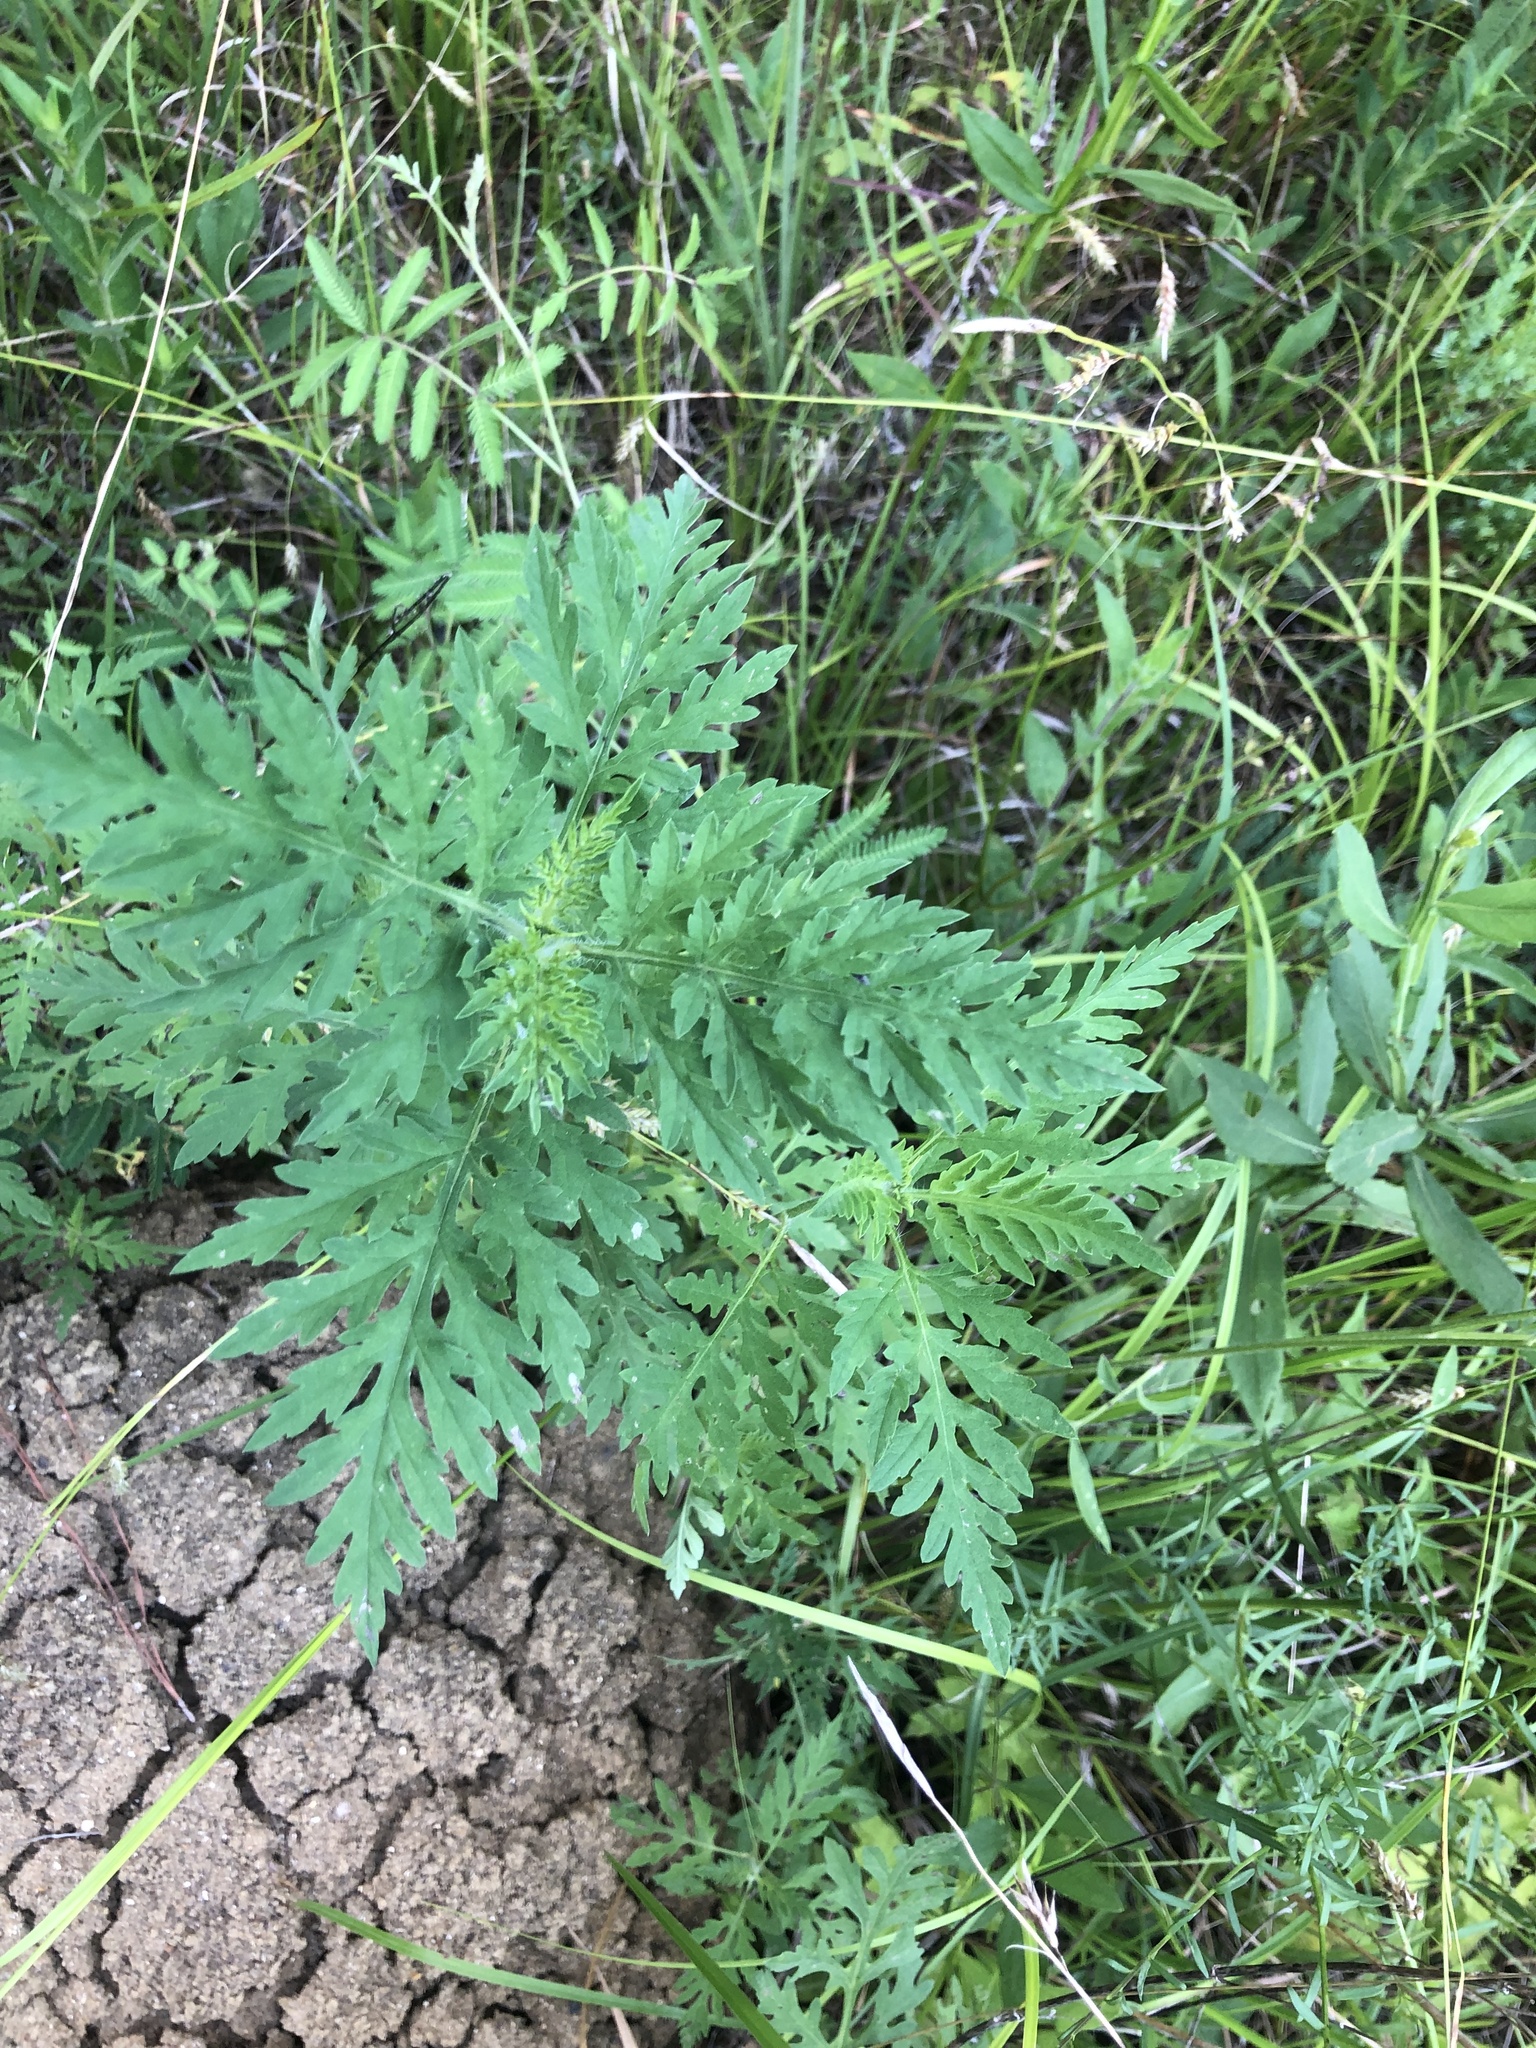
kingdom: Plantae
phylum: Tracheophyta
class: Magnoliopsida
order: Asterales
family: Asteraceae
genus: Ambrosia
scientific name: Ambrosia artemisiifolia
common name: Annual ragweed
